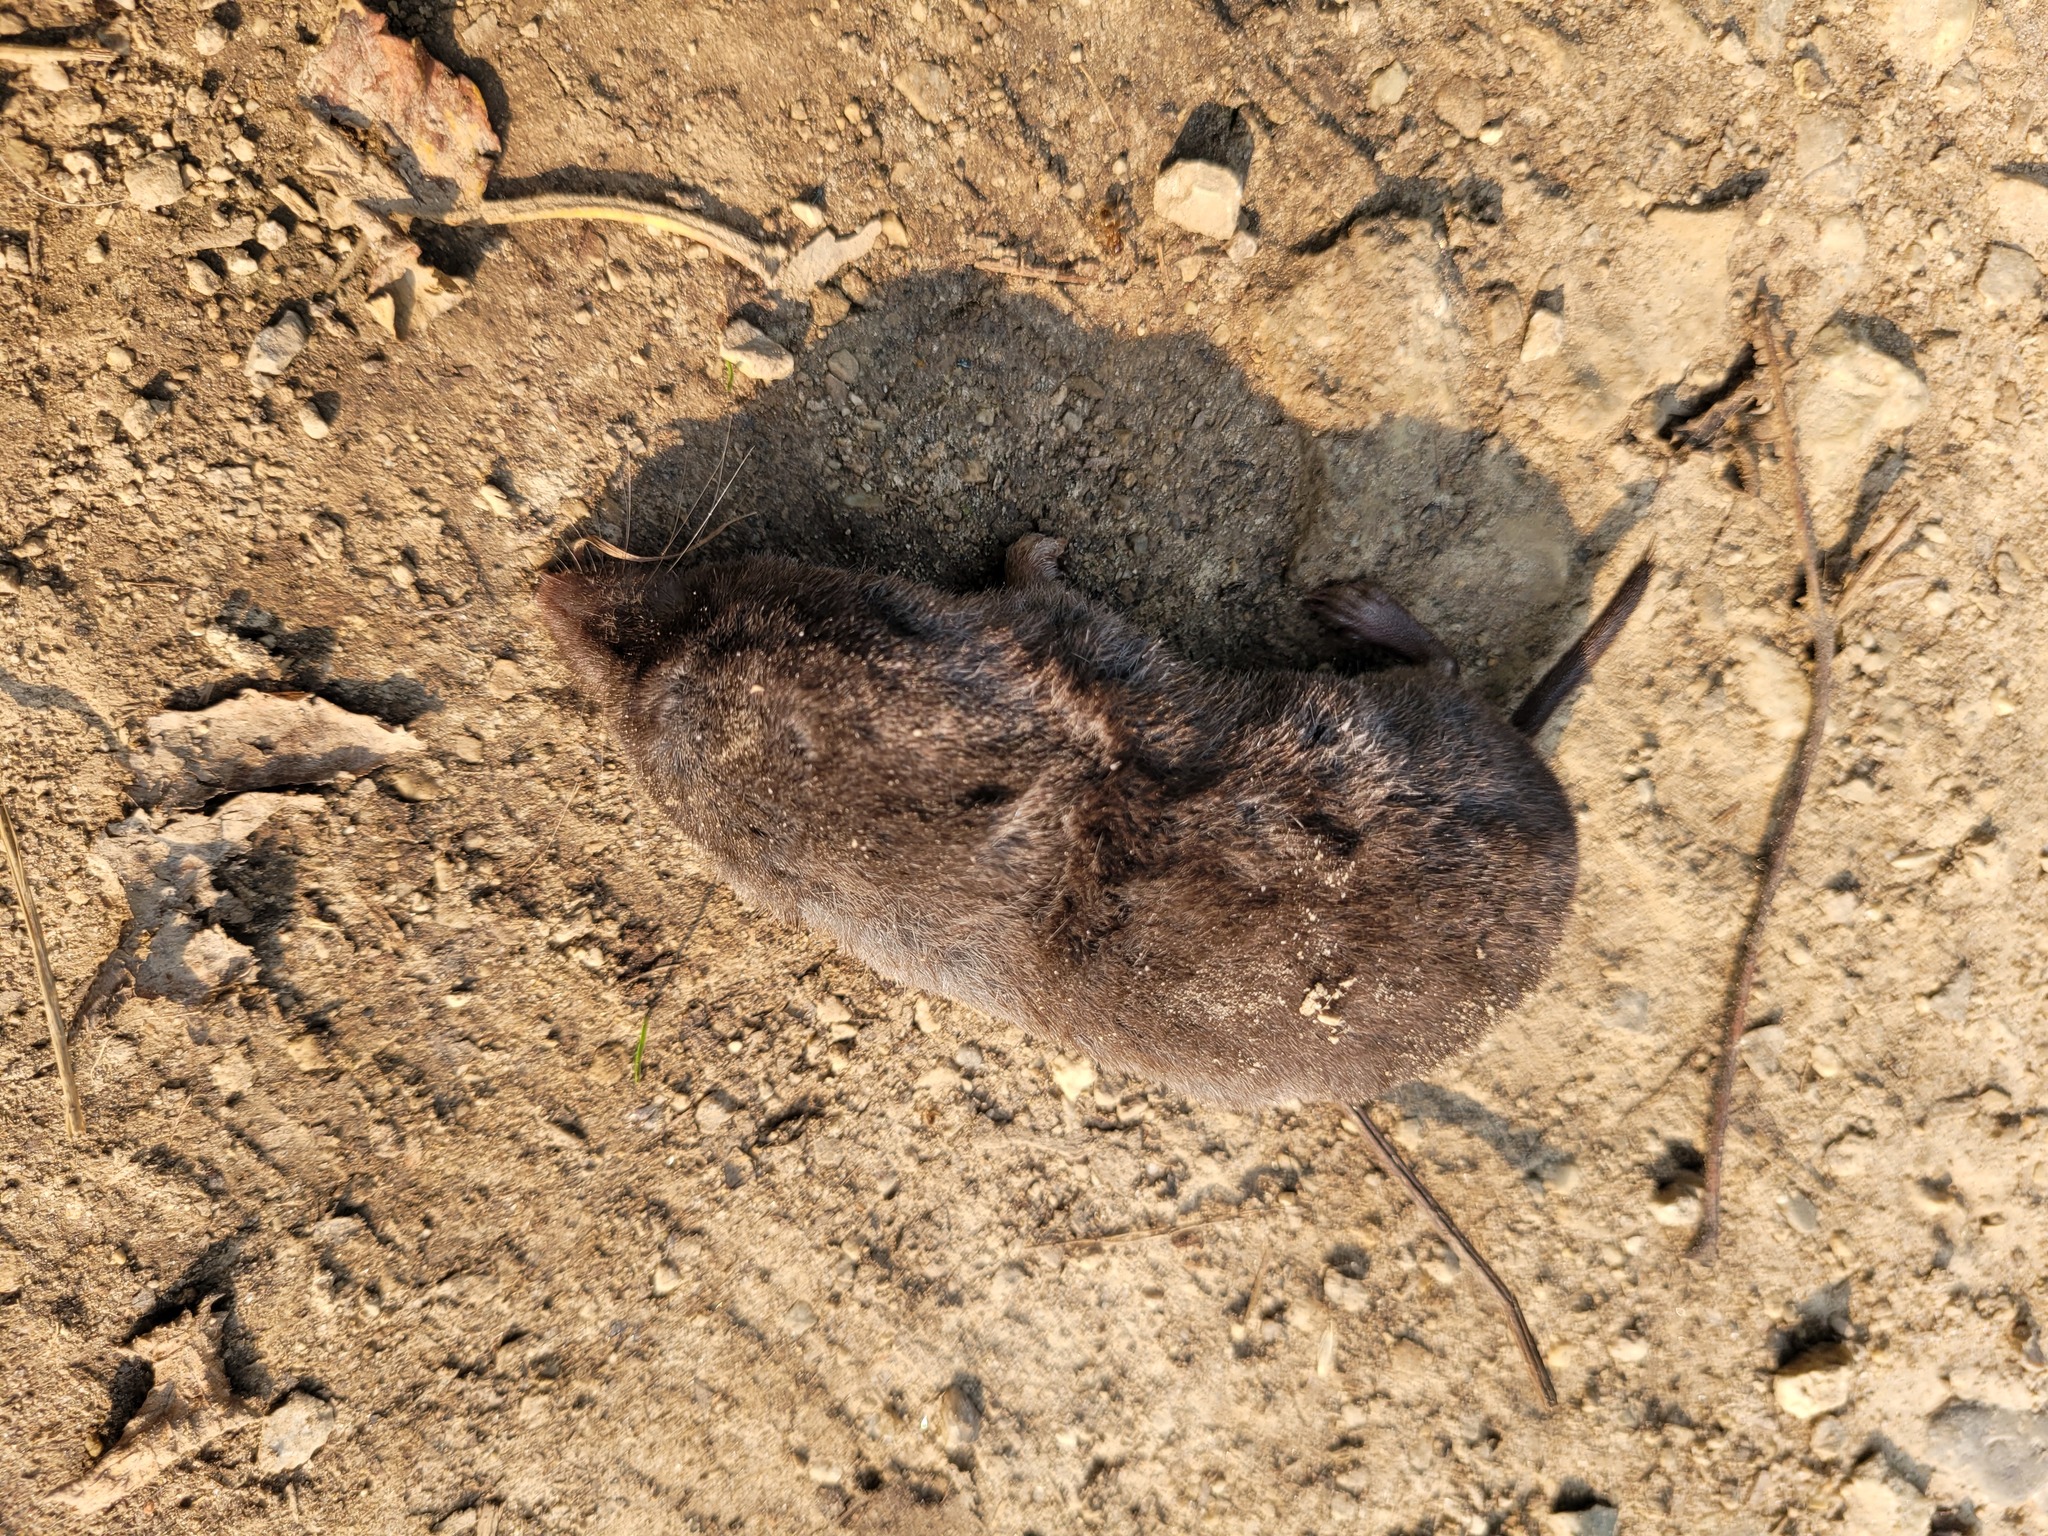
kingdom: Animalia
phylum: Chordata
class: Mammalia
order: Soricomorpha
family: Soricidae
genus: Blarina
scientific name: Blarina brevicauda
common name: Northern short-tailed shrew
